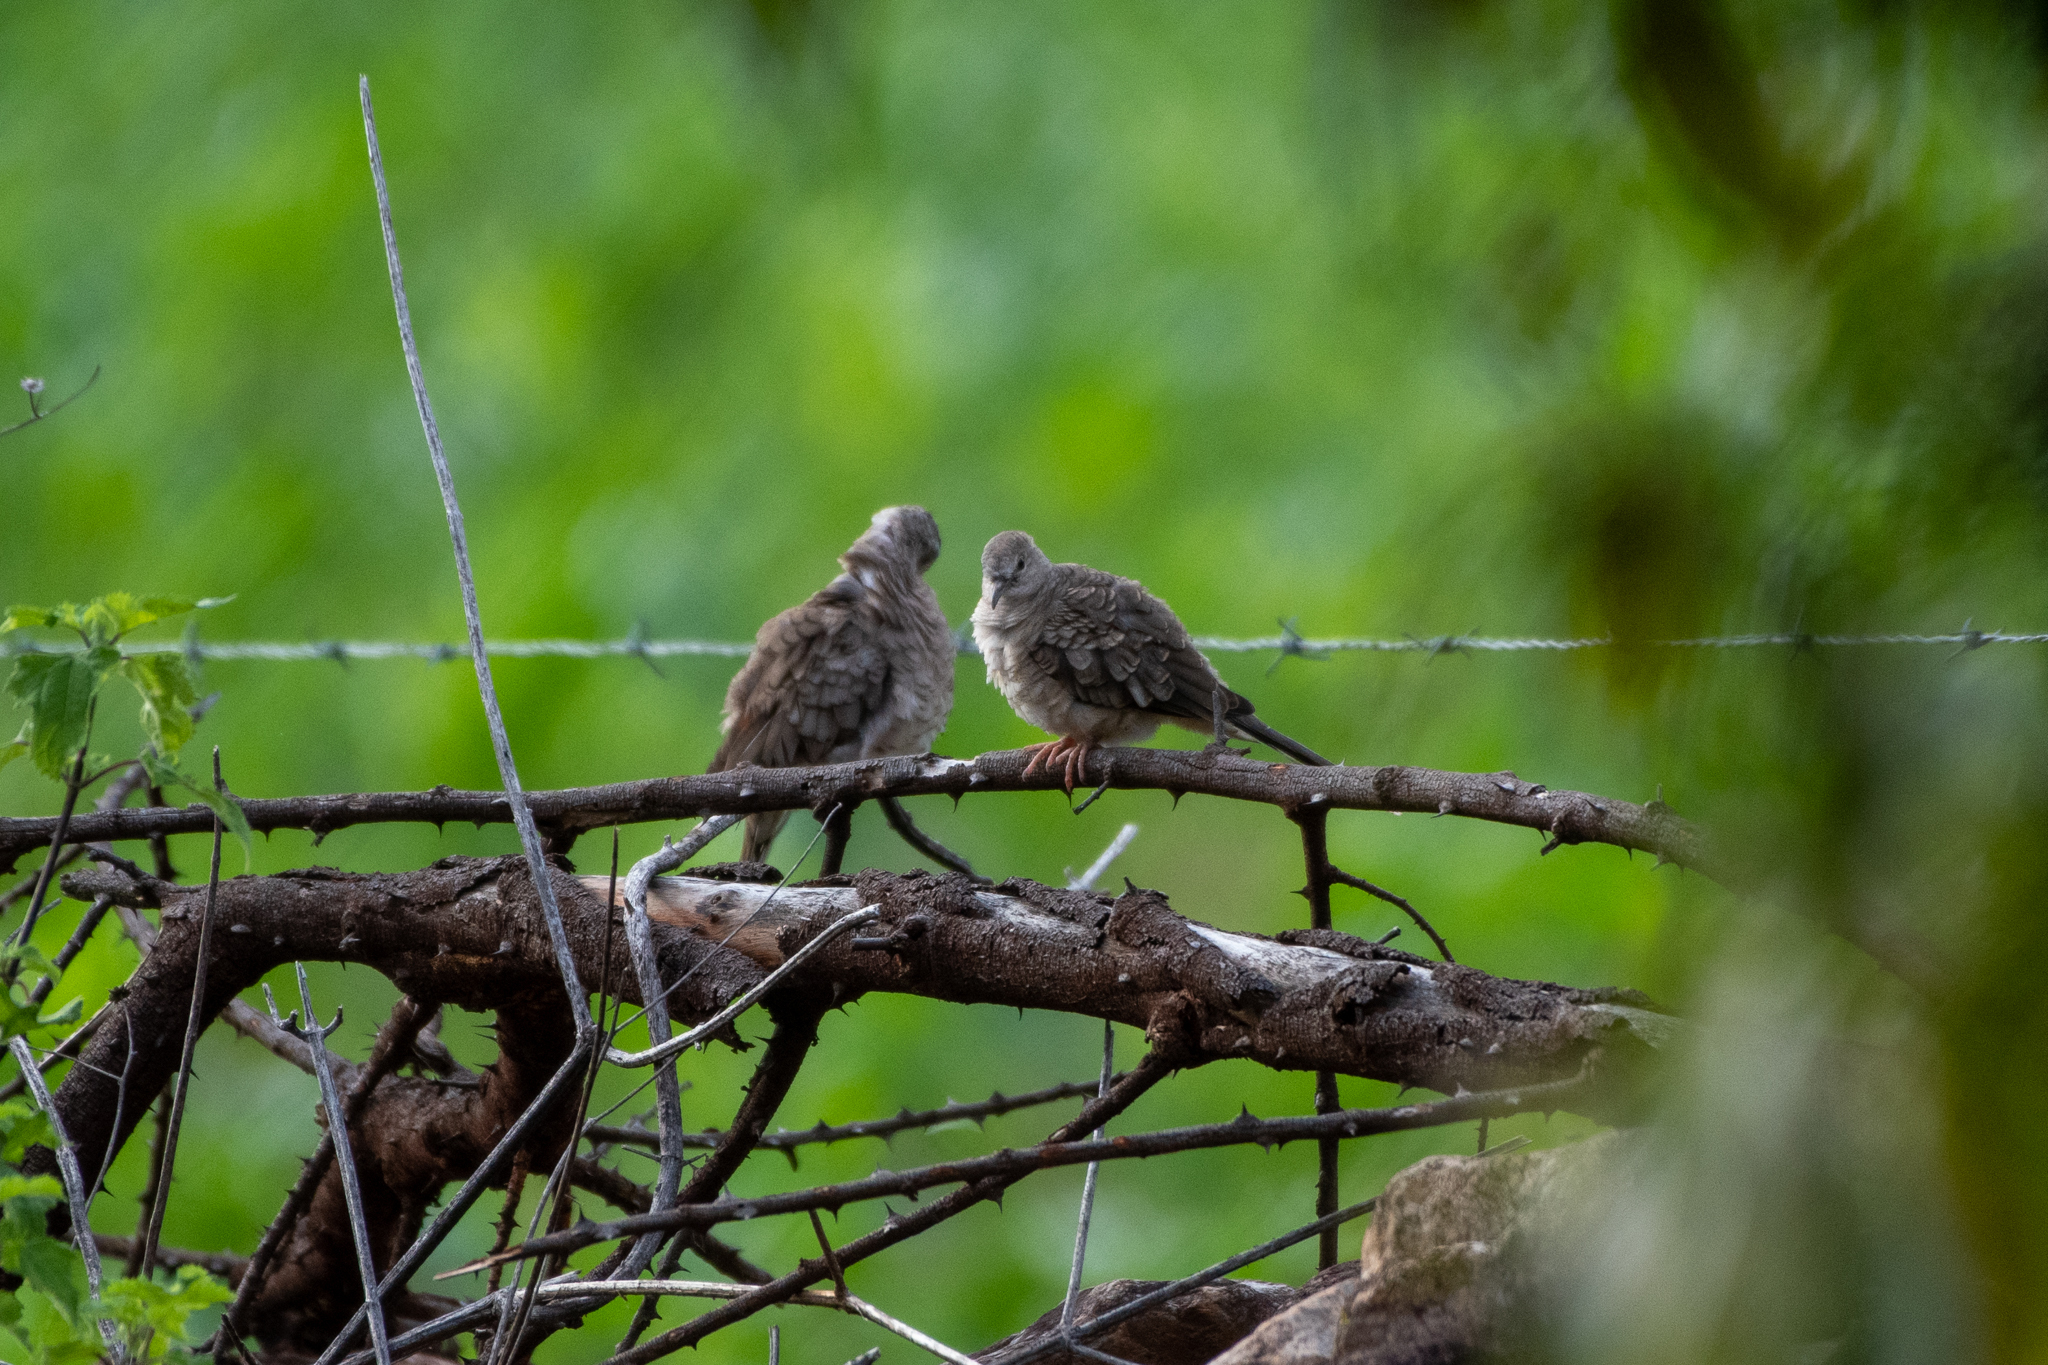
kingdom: Animalia
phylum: Chordata
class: Aves
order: Columbiformes
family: Columbidae
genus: Columbina
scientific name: Columbina inca
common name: Inca dove
